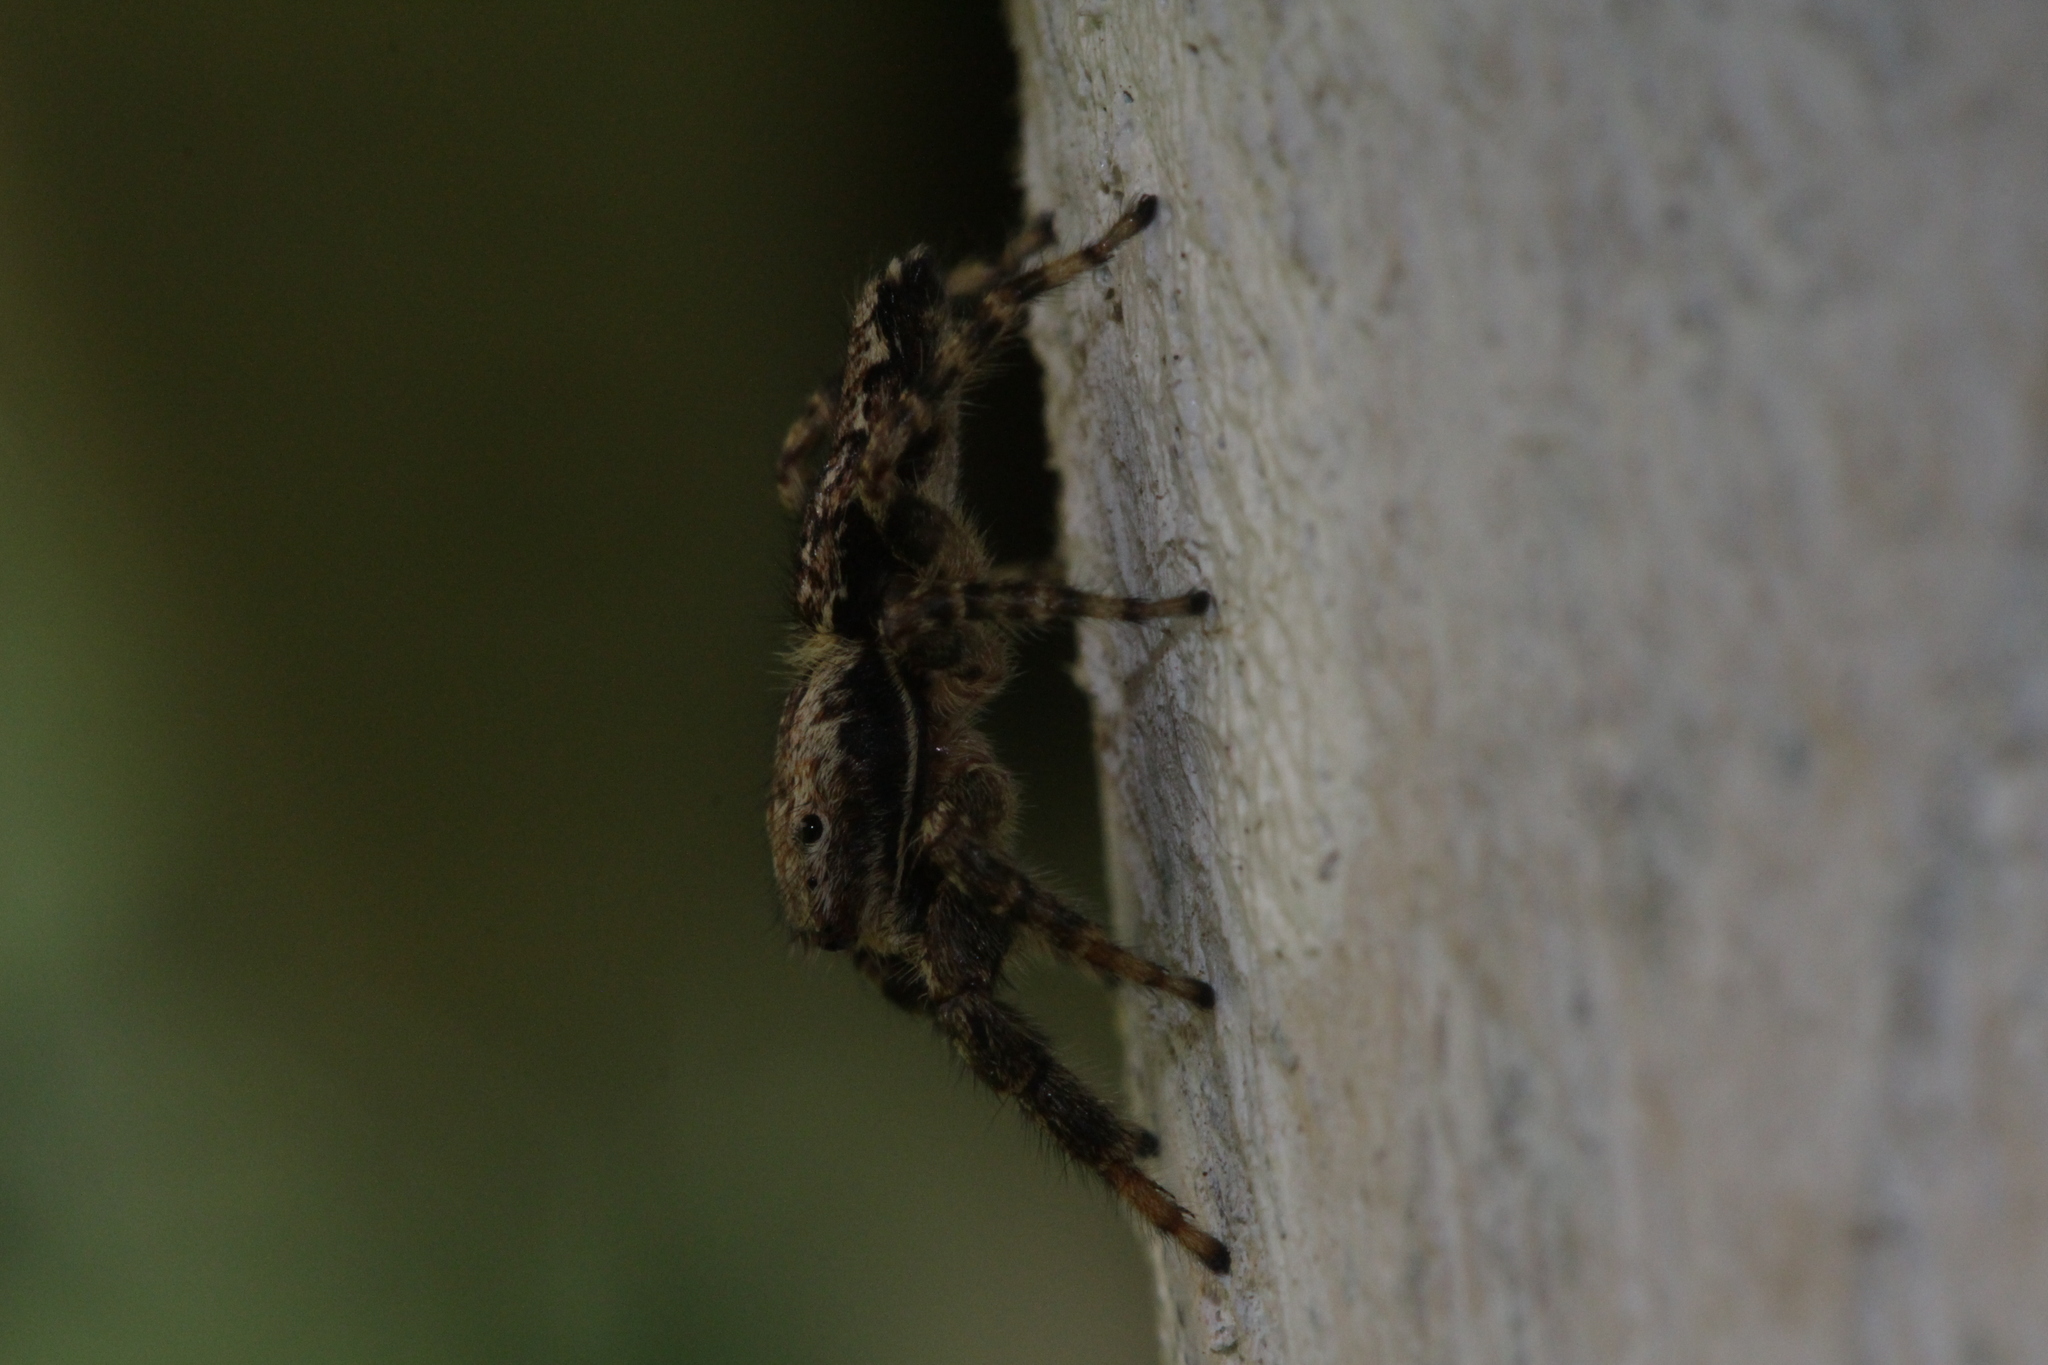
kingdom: Animalia
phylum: Arthropoda
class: Arachnida
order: Araneae
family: Salticidae
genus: Marpissa
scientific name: Marpissa muscosa
